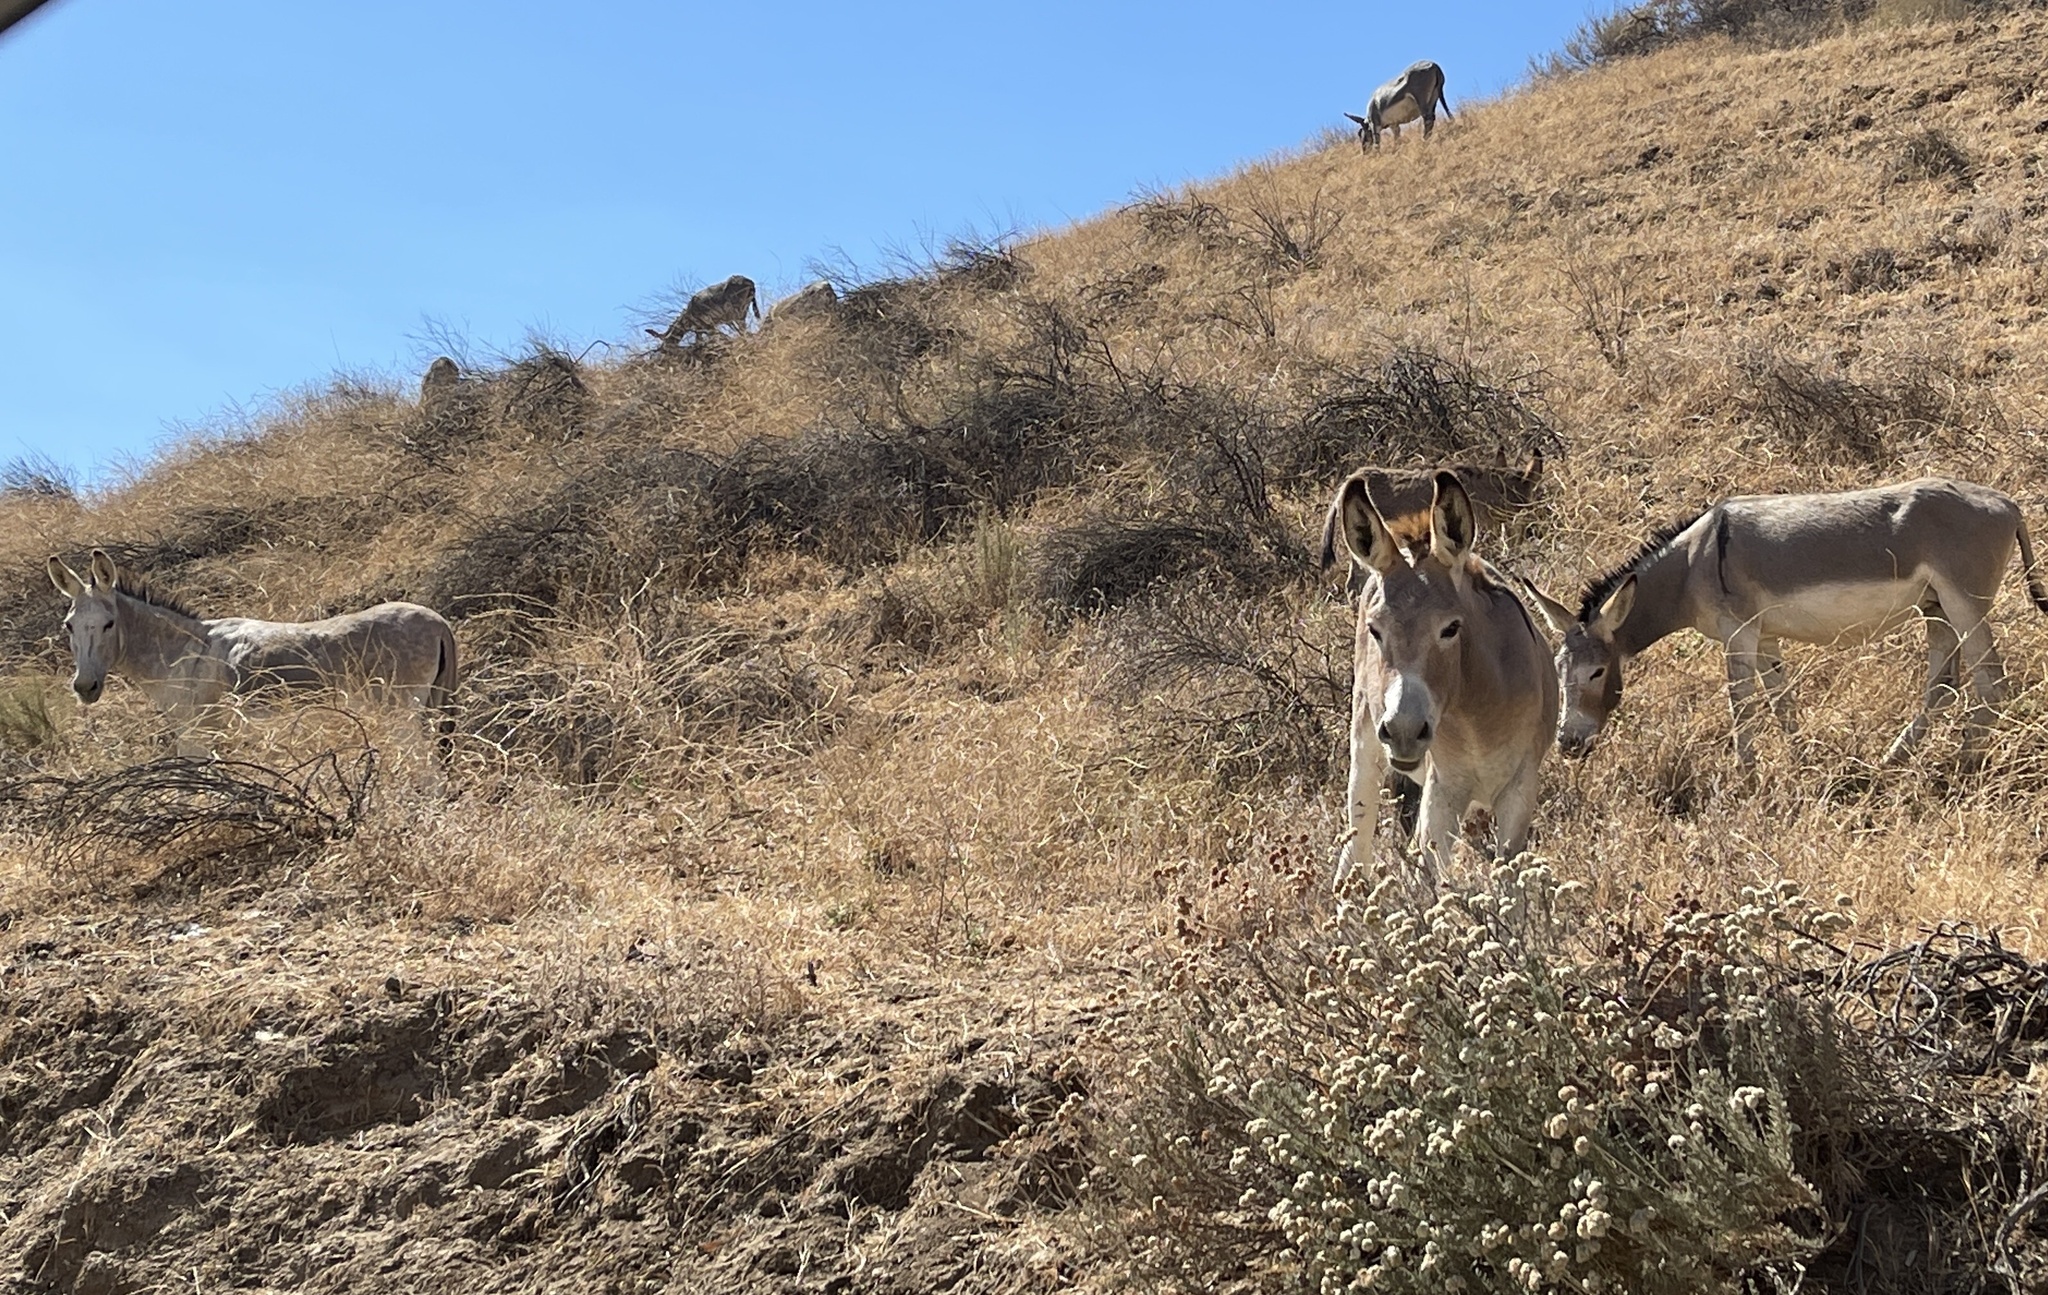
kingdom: Animalia
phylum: Chordata
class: Mammalia
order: Perissodactyla
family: Equidae
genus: Equus
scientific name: Equus asinus
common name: Ass
